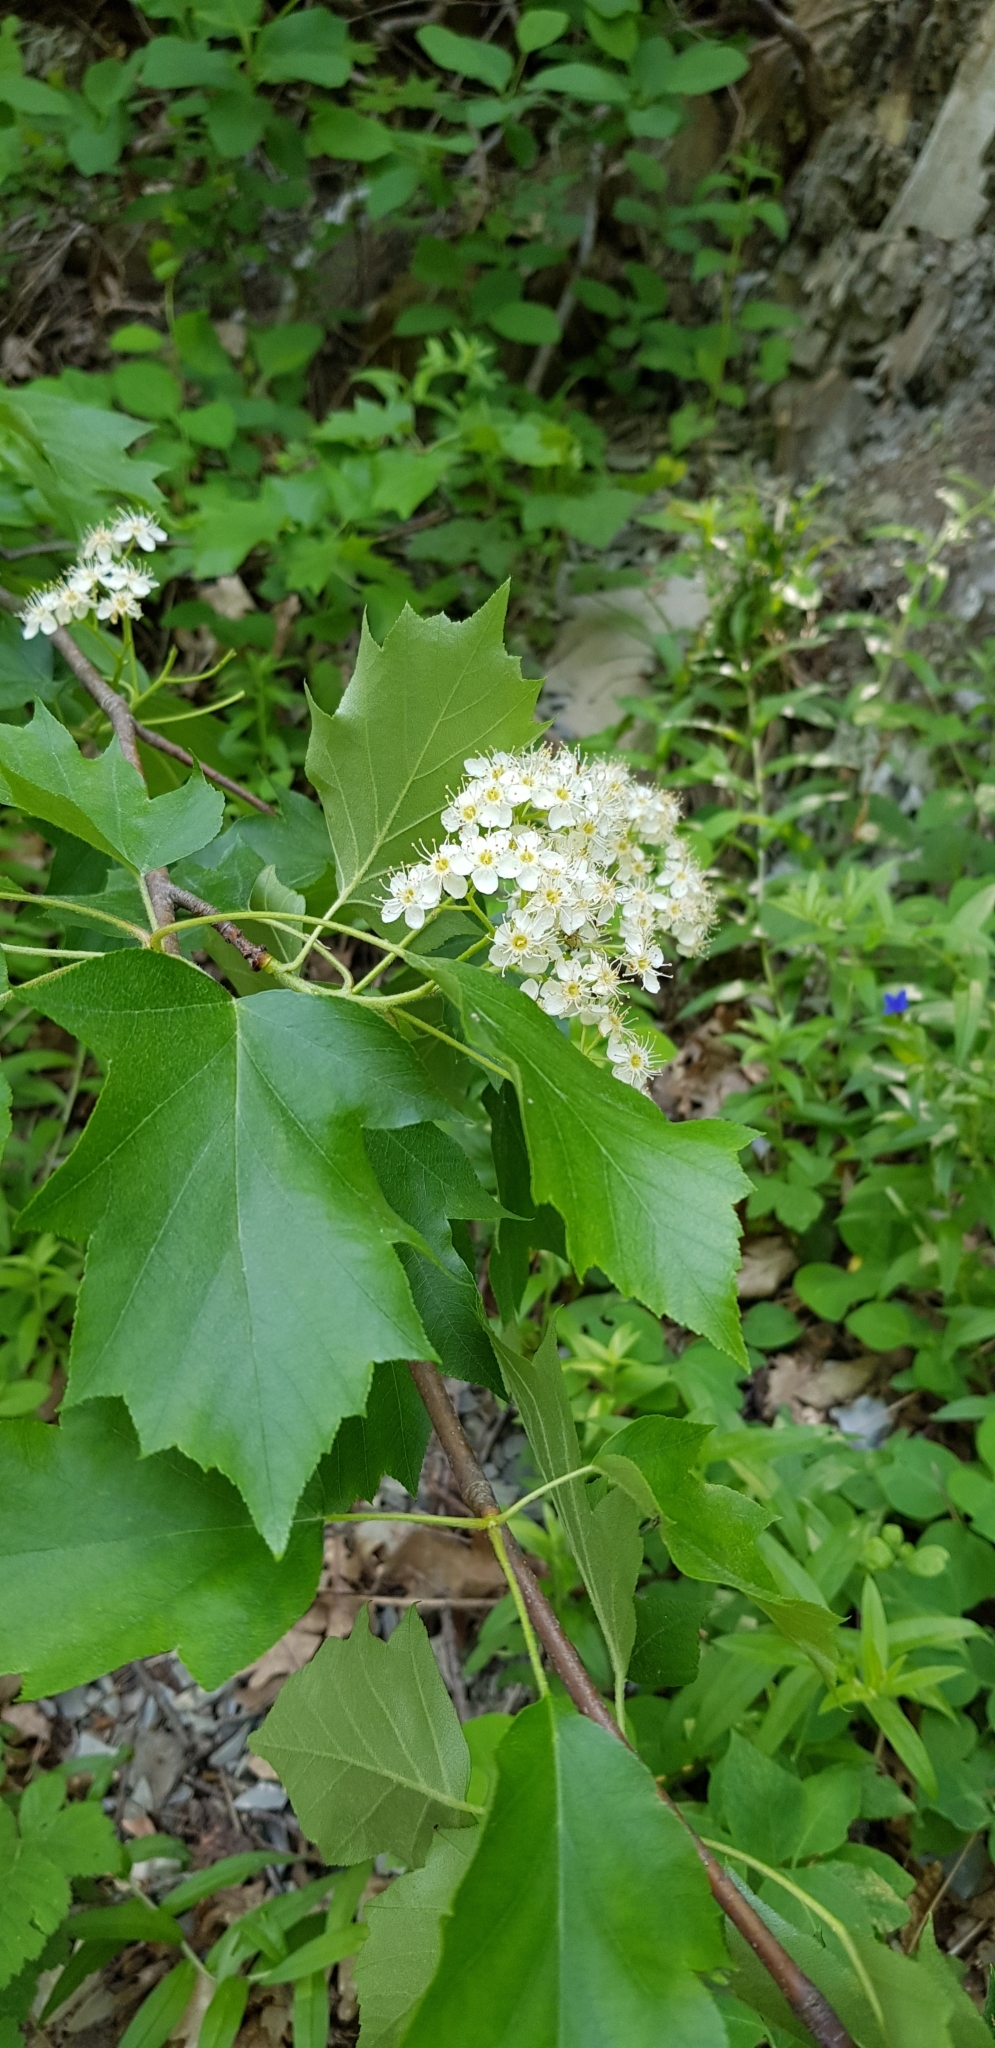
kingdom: Plantae
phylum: Tracheophyta
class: Magnoliopsida
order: Rosales
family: Rosaceae
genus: Torminalis
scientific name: Torminalis glaberrima
